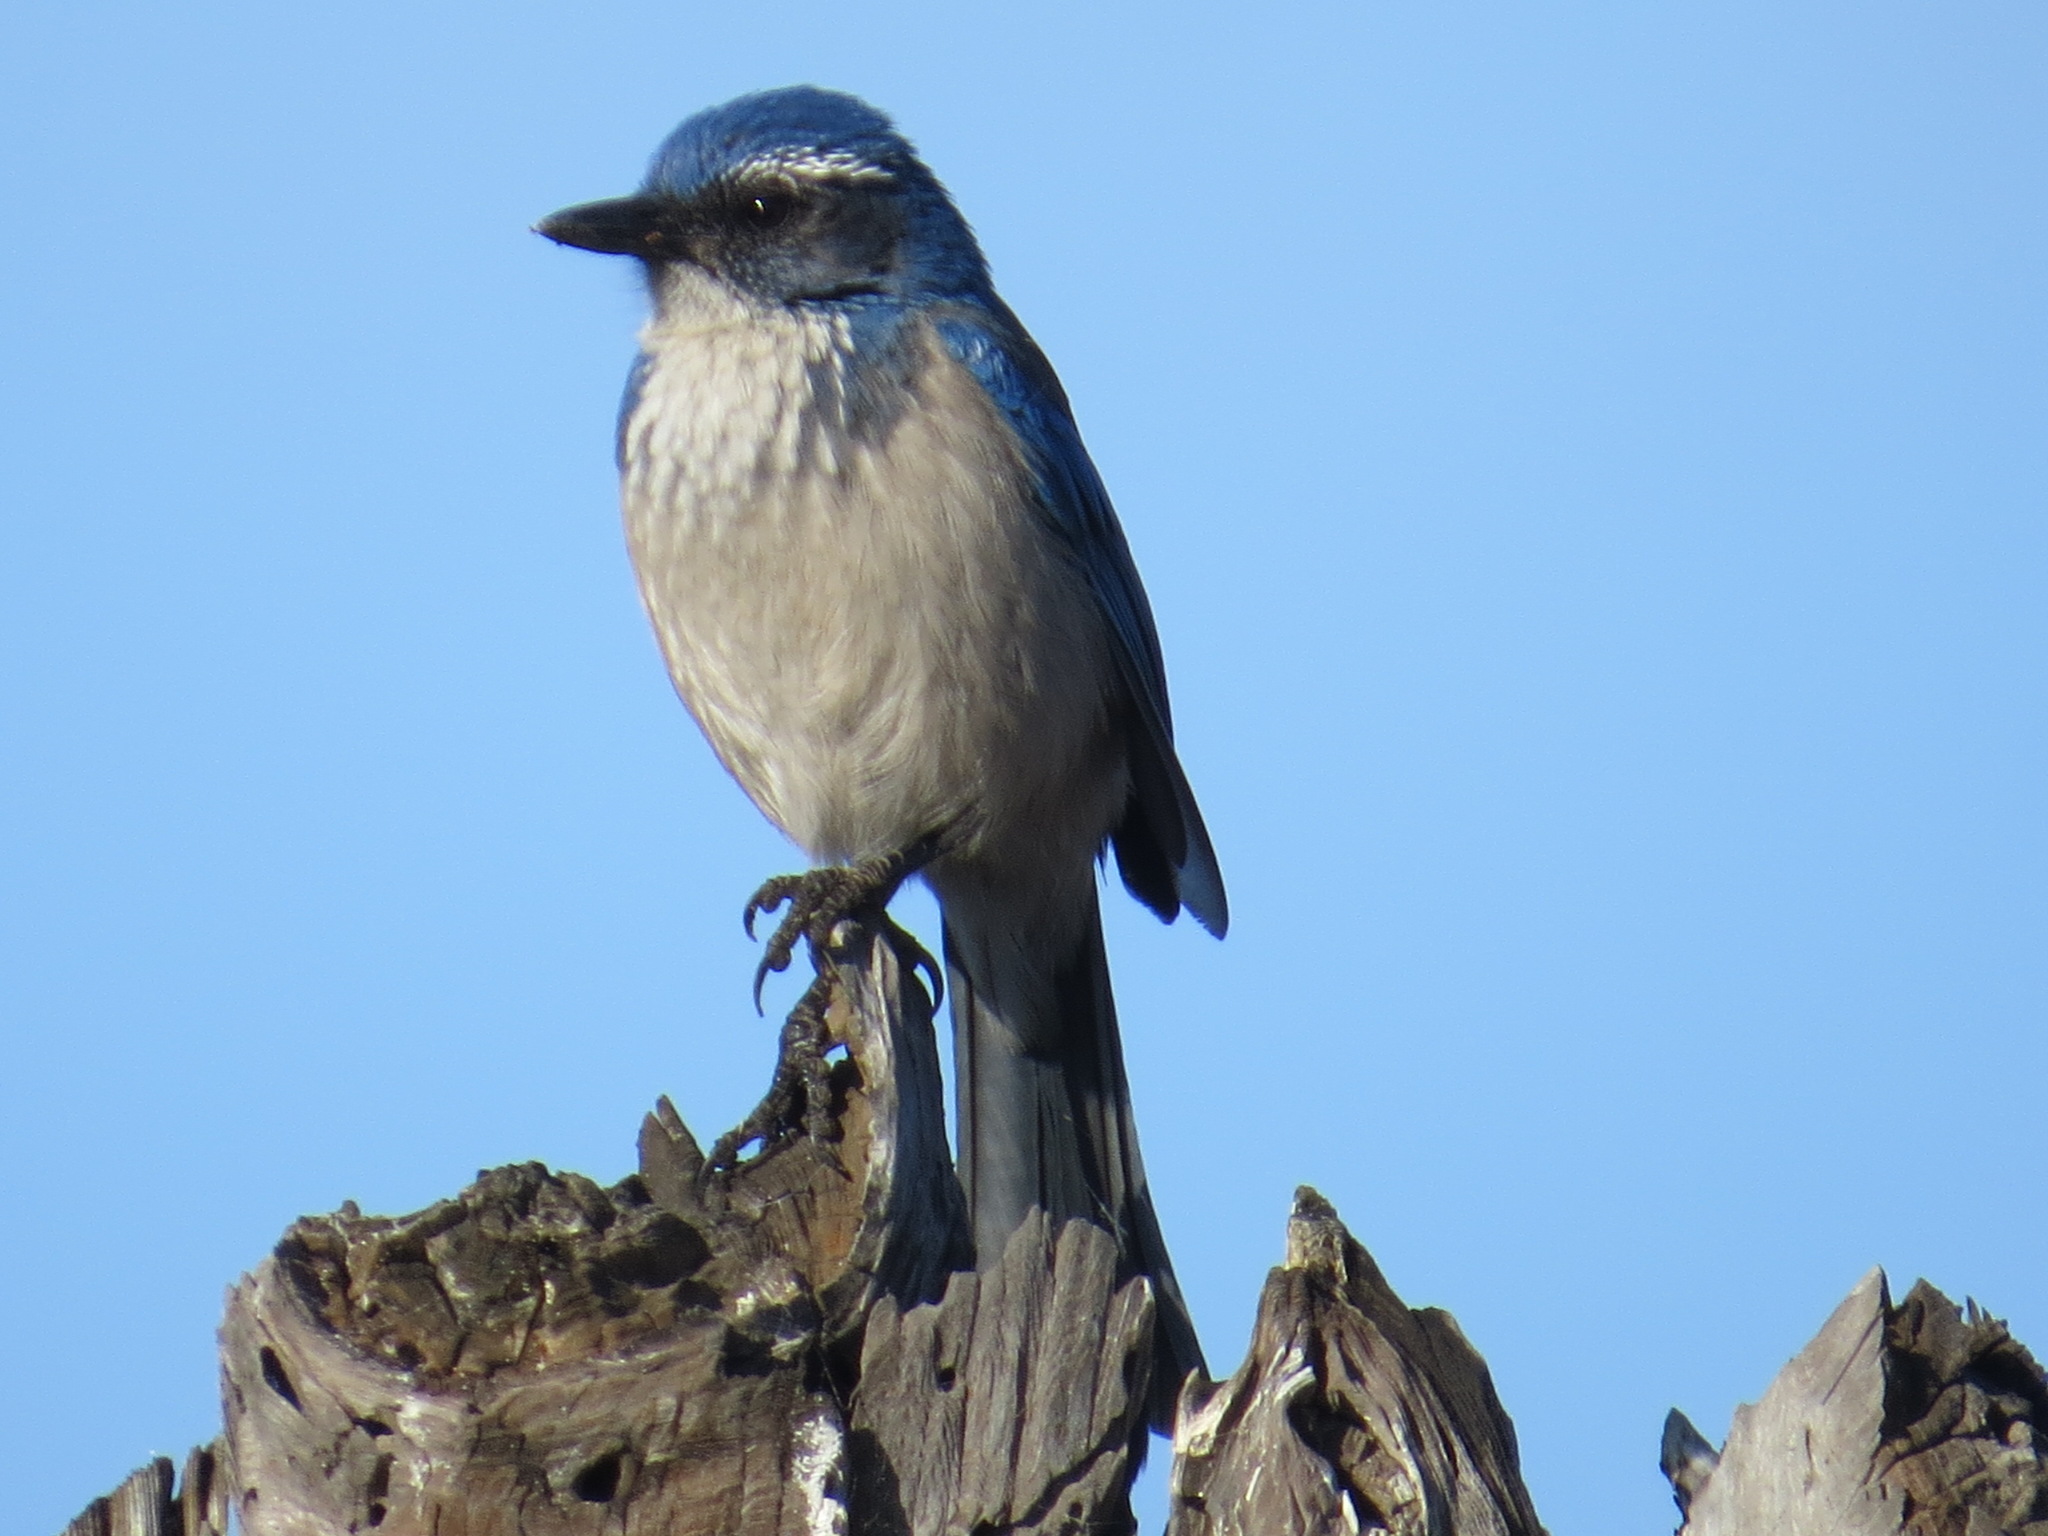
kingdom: Animalia
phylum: Chordata
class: Aves
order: Passeriformes
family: Corvidae
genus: Aphelocoma
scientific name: Aphelocoma californica
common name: California scrub-jay
